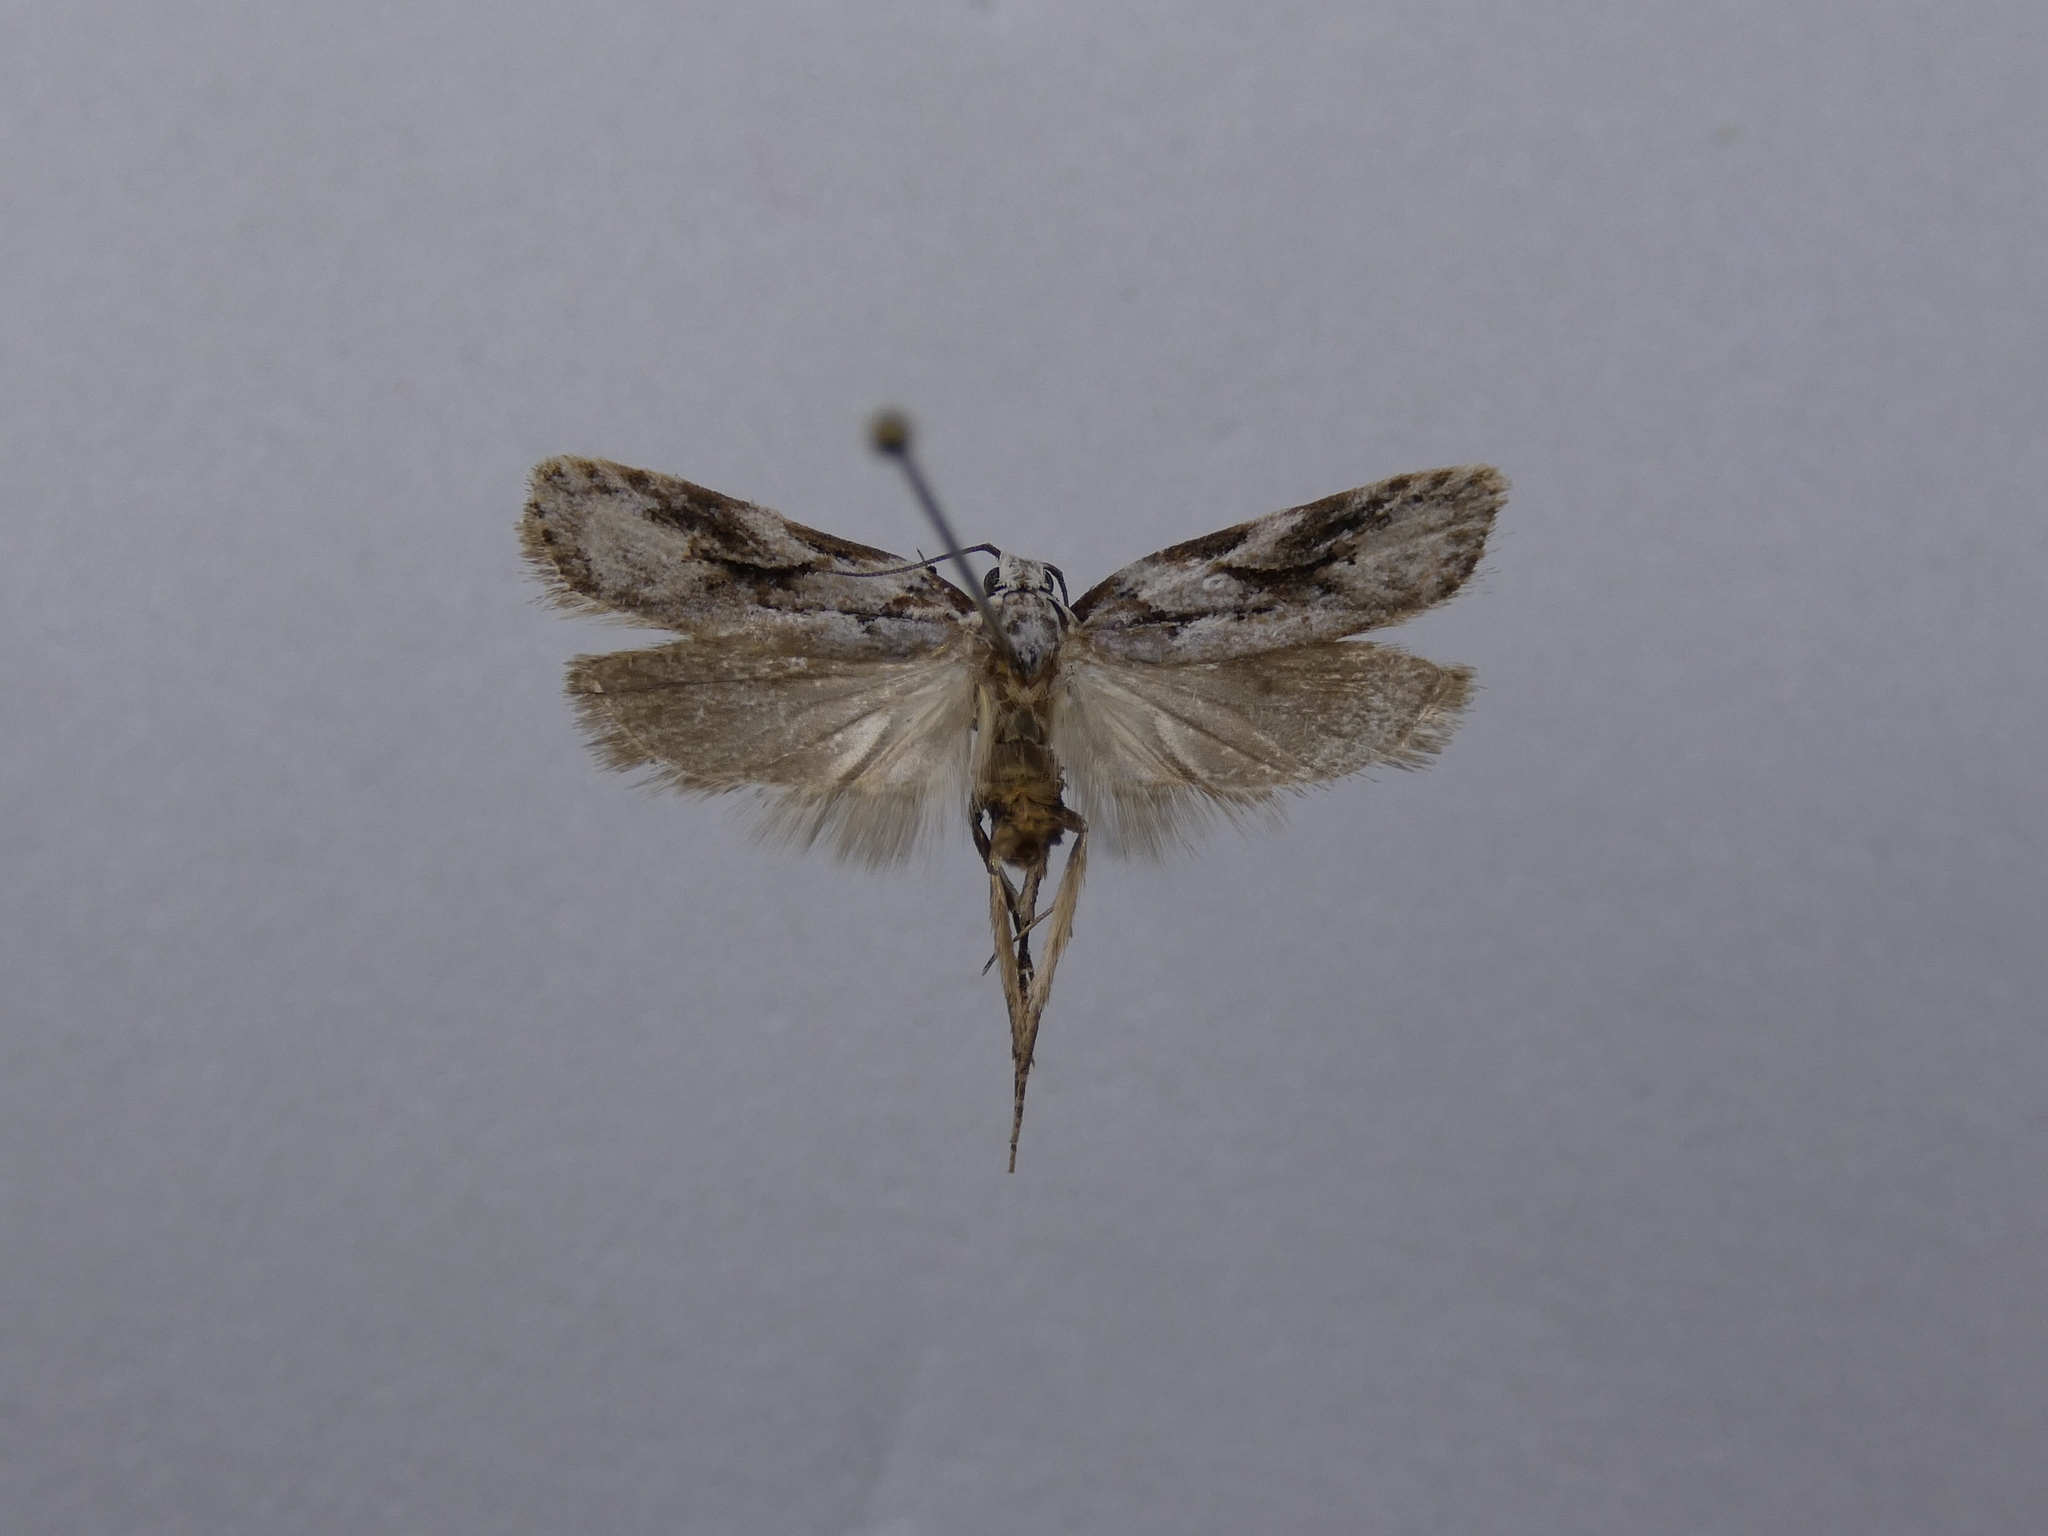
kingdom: Animalia
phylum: Arthropoda
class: Insecta
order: Lepidoptera
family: Oecophoridae
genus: Izatha
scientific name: Izatha mesoschista
